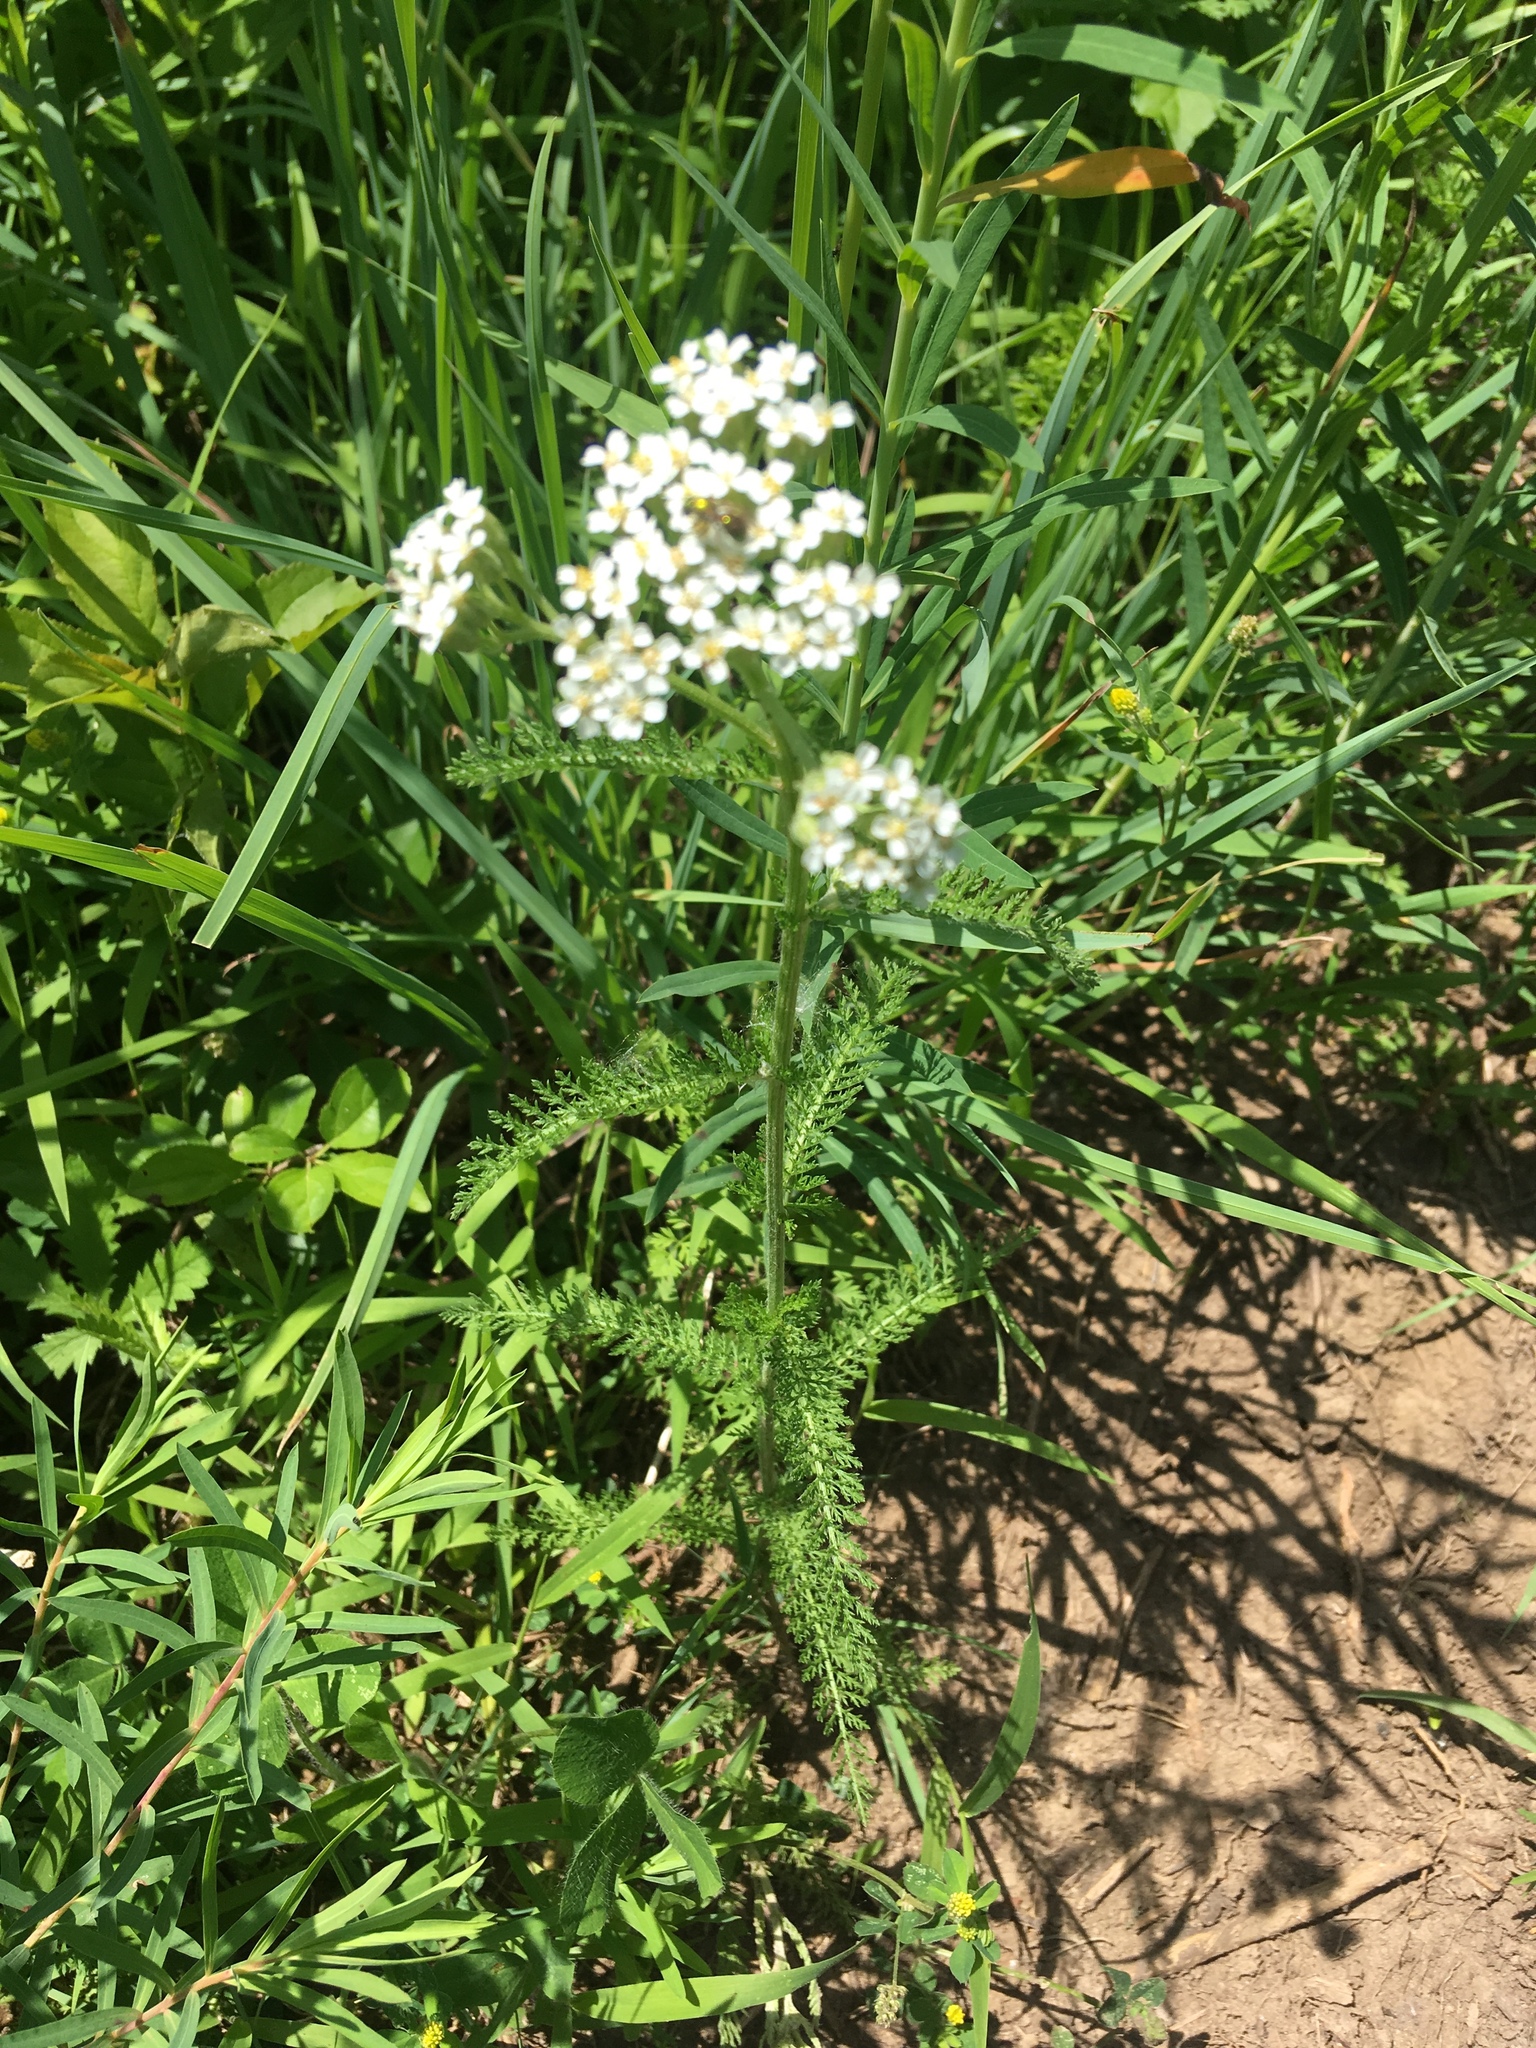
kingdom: Plantae
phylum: Tracheophyta
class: Magnoliopsida
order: Asterales
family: Asteraceae
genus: Achillea
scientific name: Achillea millefolium
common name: Yarrow
